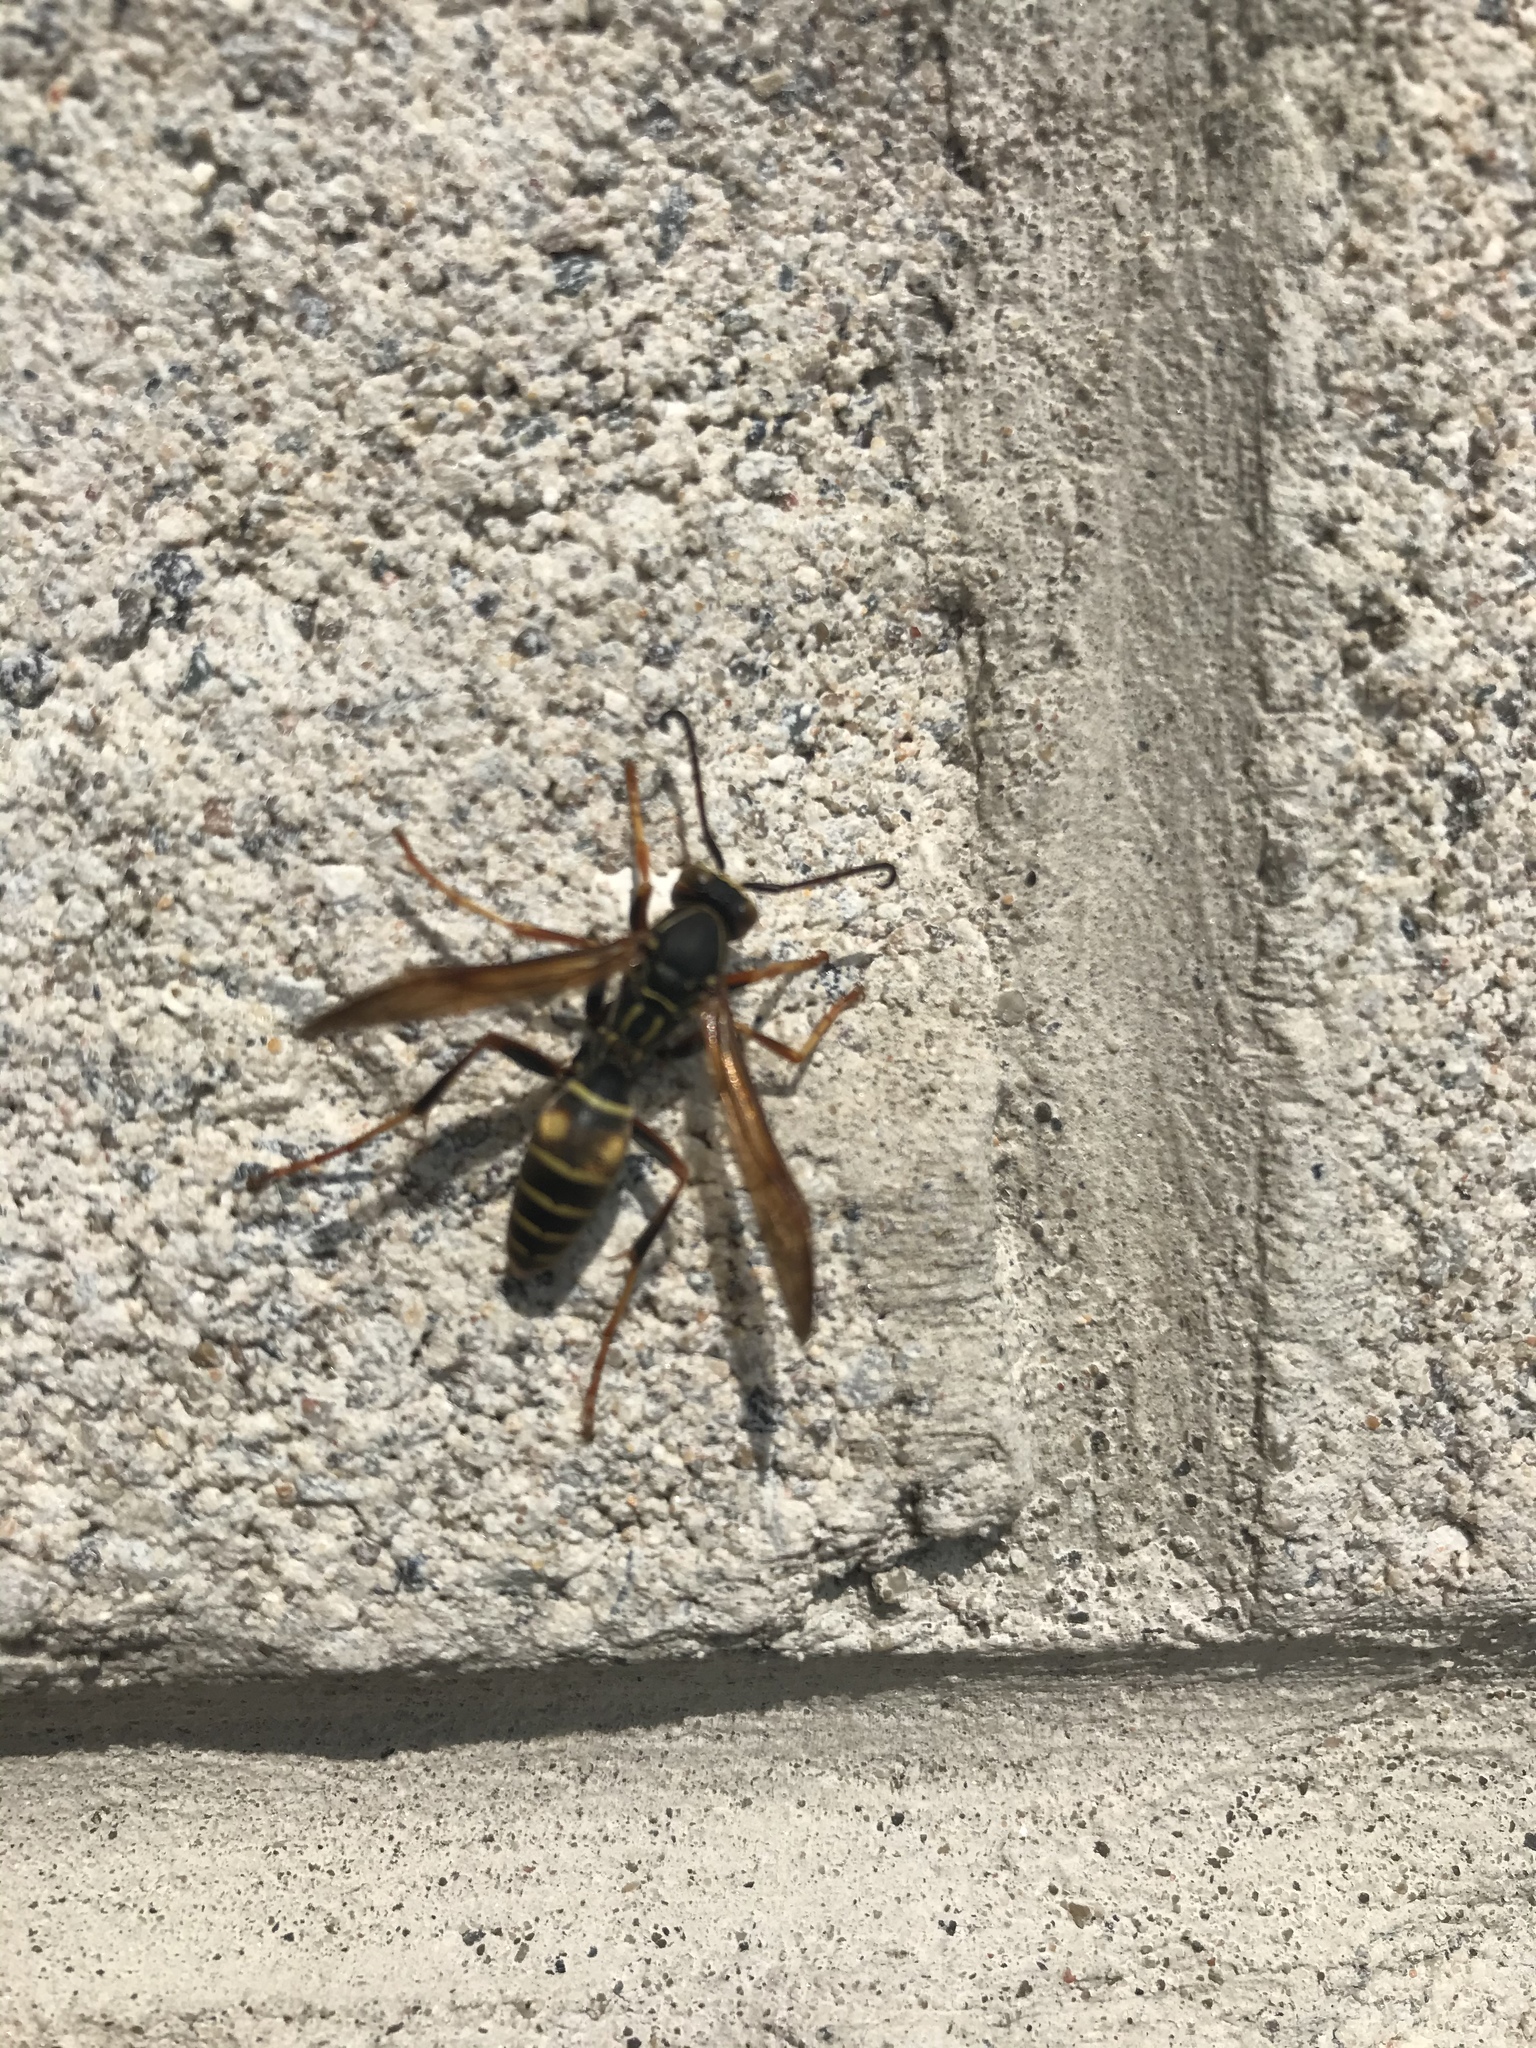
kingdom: Animalia
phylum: Arthropoda
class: Insecta
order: Hymenoptera
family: Eumenidae
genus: Polistes
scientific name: Polistes fuscatus
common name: Dark paper wasp
